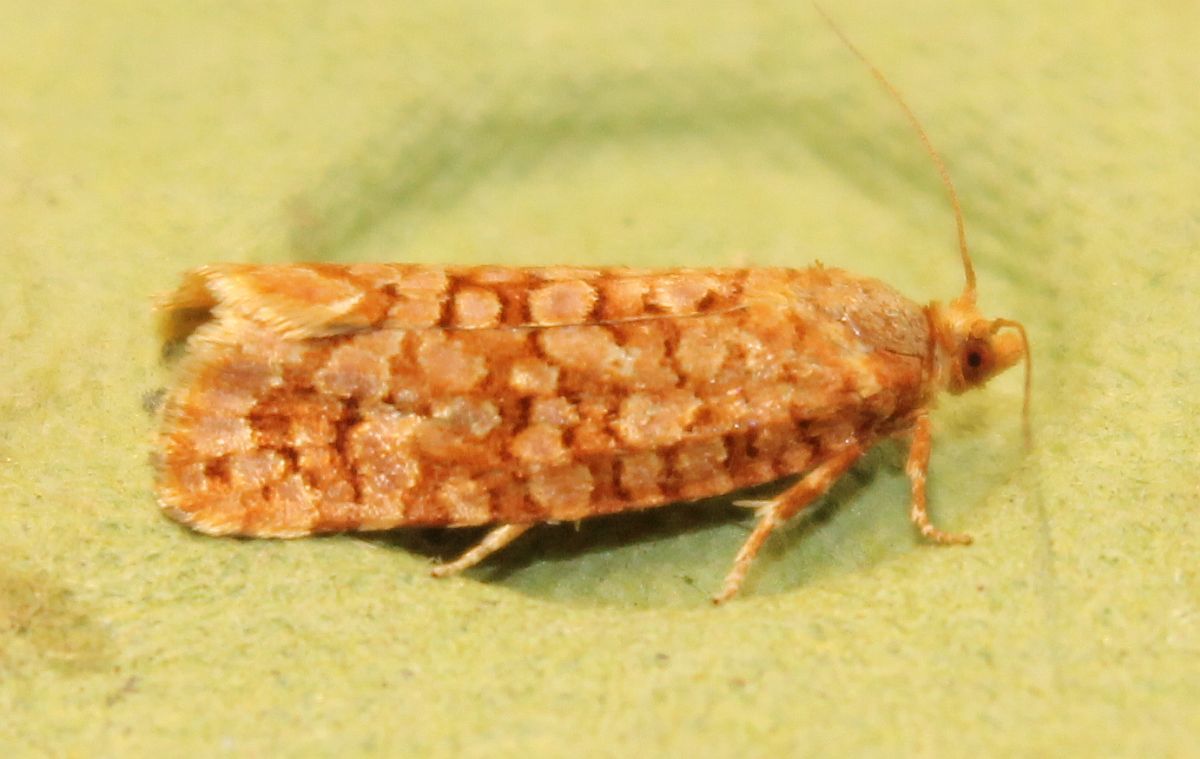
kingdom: Animalia
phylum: Arthropoda
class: Insecta
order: Lepidoptera
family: Tortricidae
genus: Lozotaeniodes
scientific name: Lozotaeniodes formosana
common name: Orange pine twist
